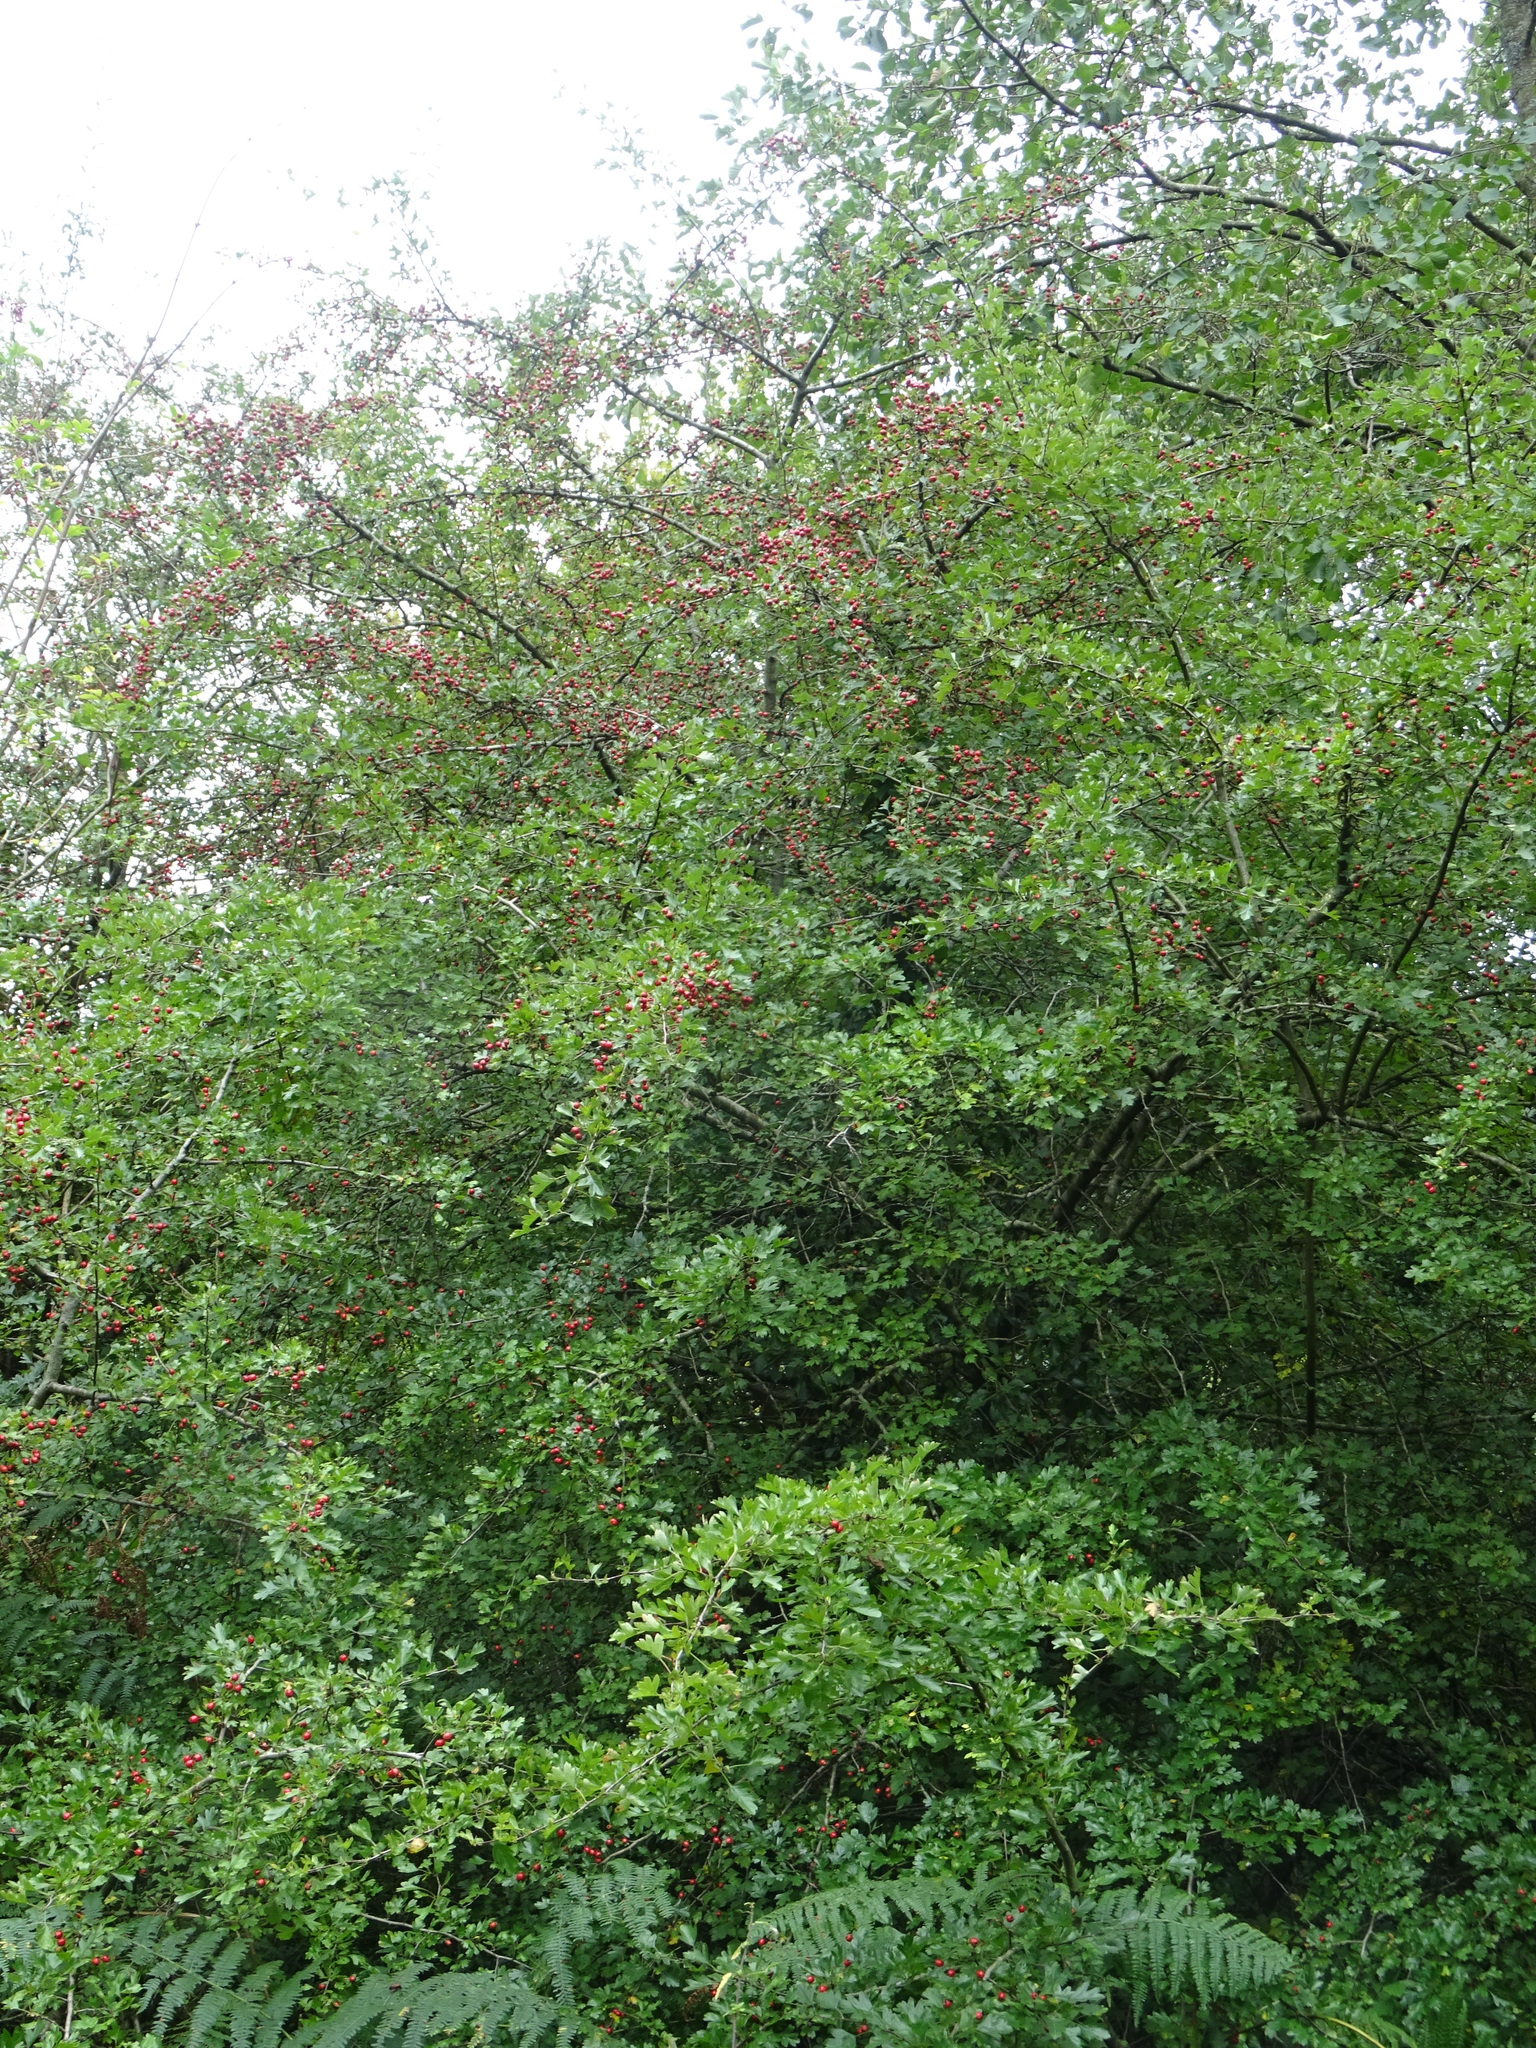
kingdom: Plantae
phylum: Tracheophyta
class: Magnoliopsida
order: Rosales
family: Rosaceae
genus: Crataegus
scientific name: Crataegus monogyna
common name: Hawthorn
